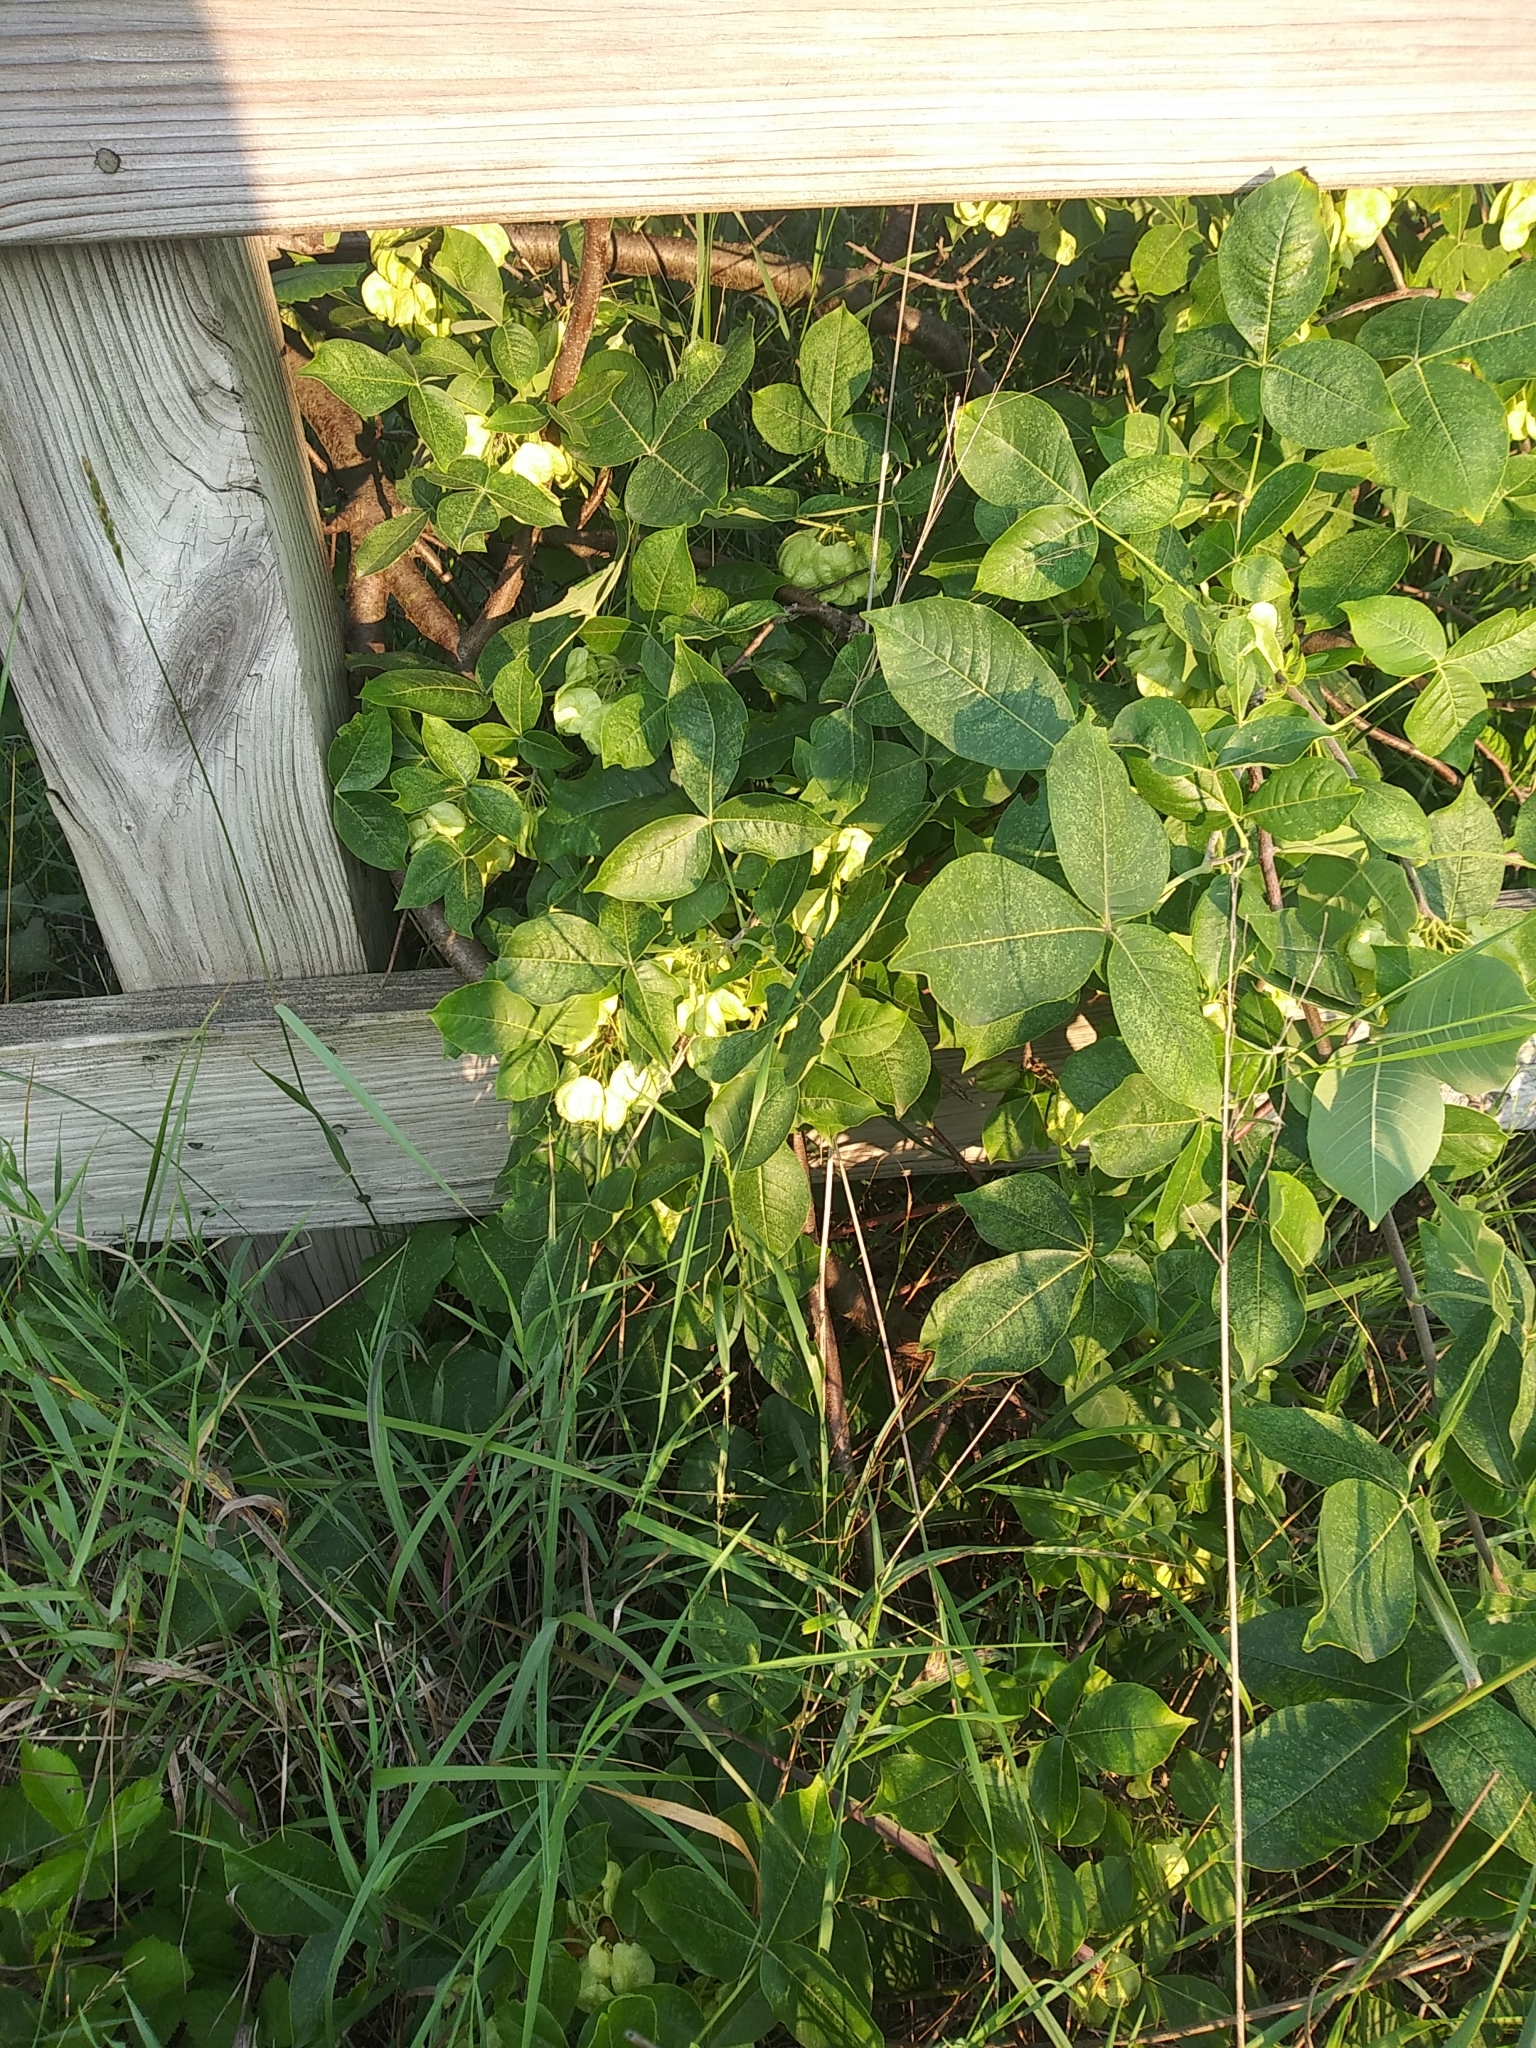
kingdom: Plantae
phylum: Tracheophyta
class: Magnoliopsida
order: Sapindales
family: Rutaceae
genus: Ptelea
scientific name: Ptelea trifoliata
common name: Common hop-tree
